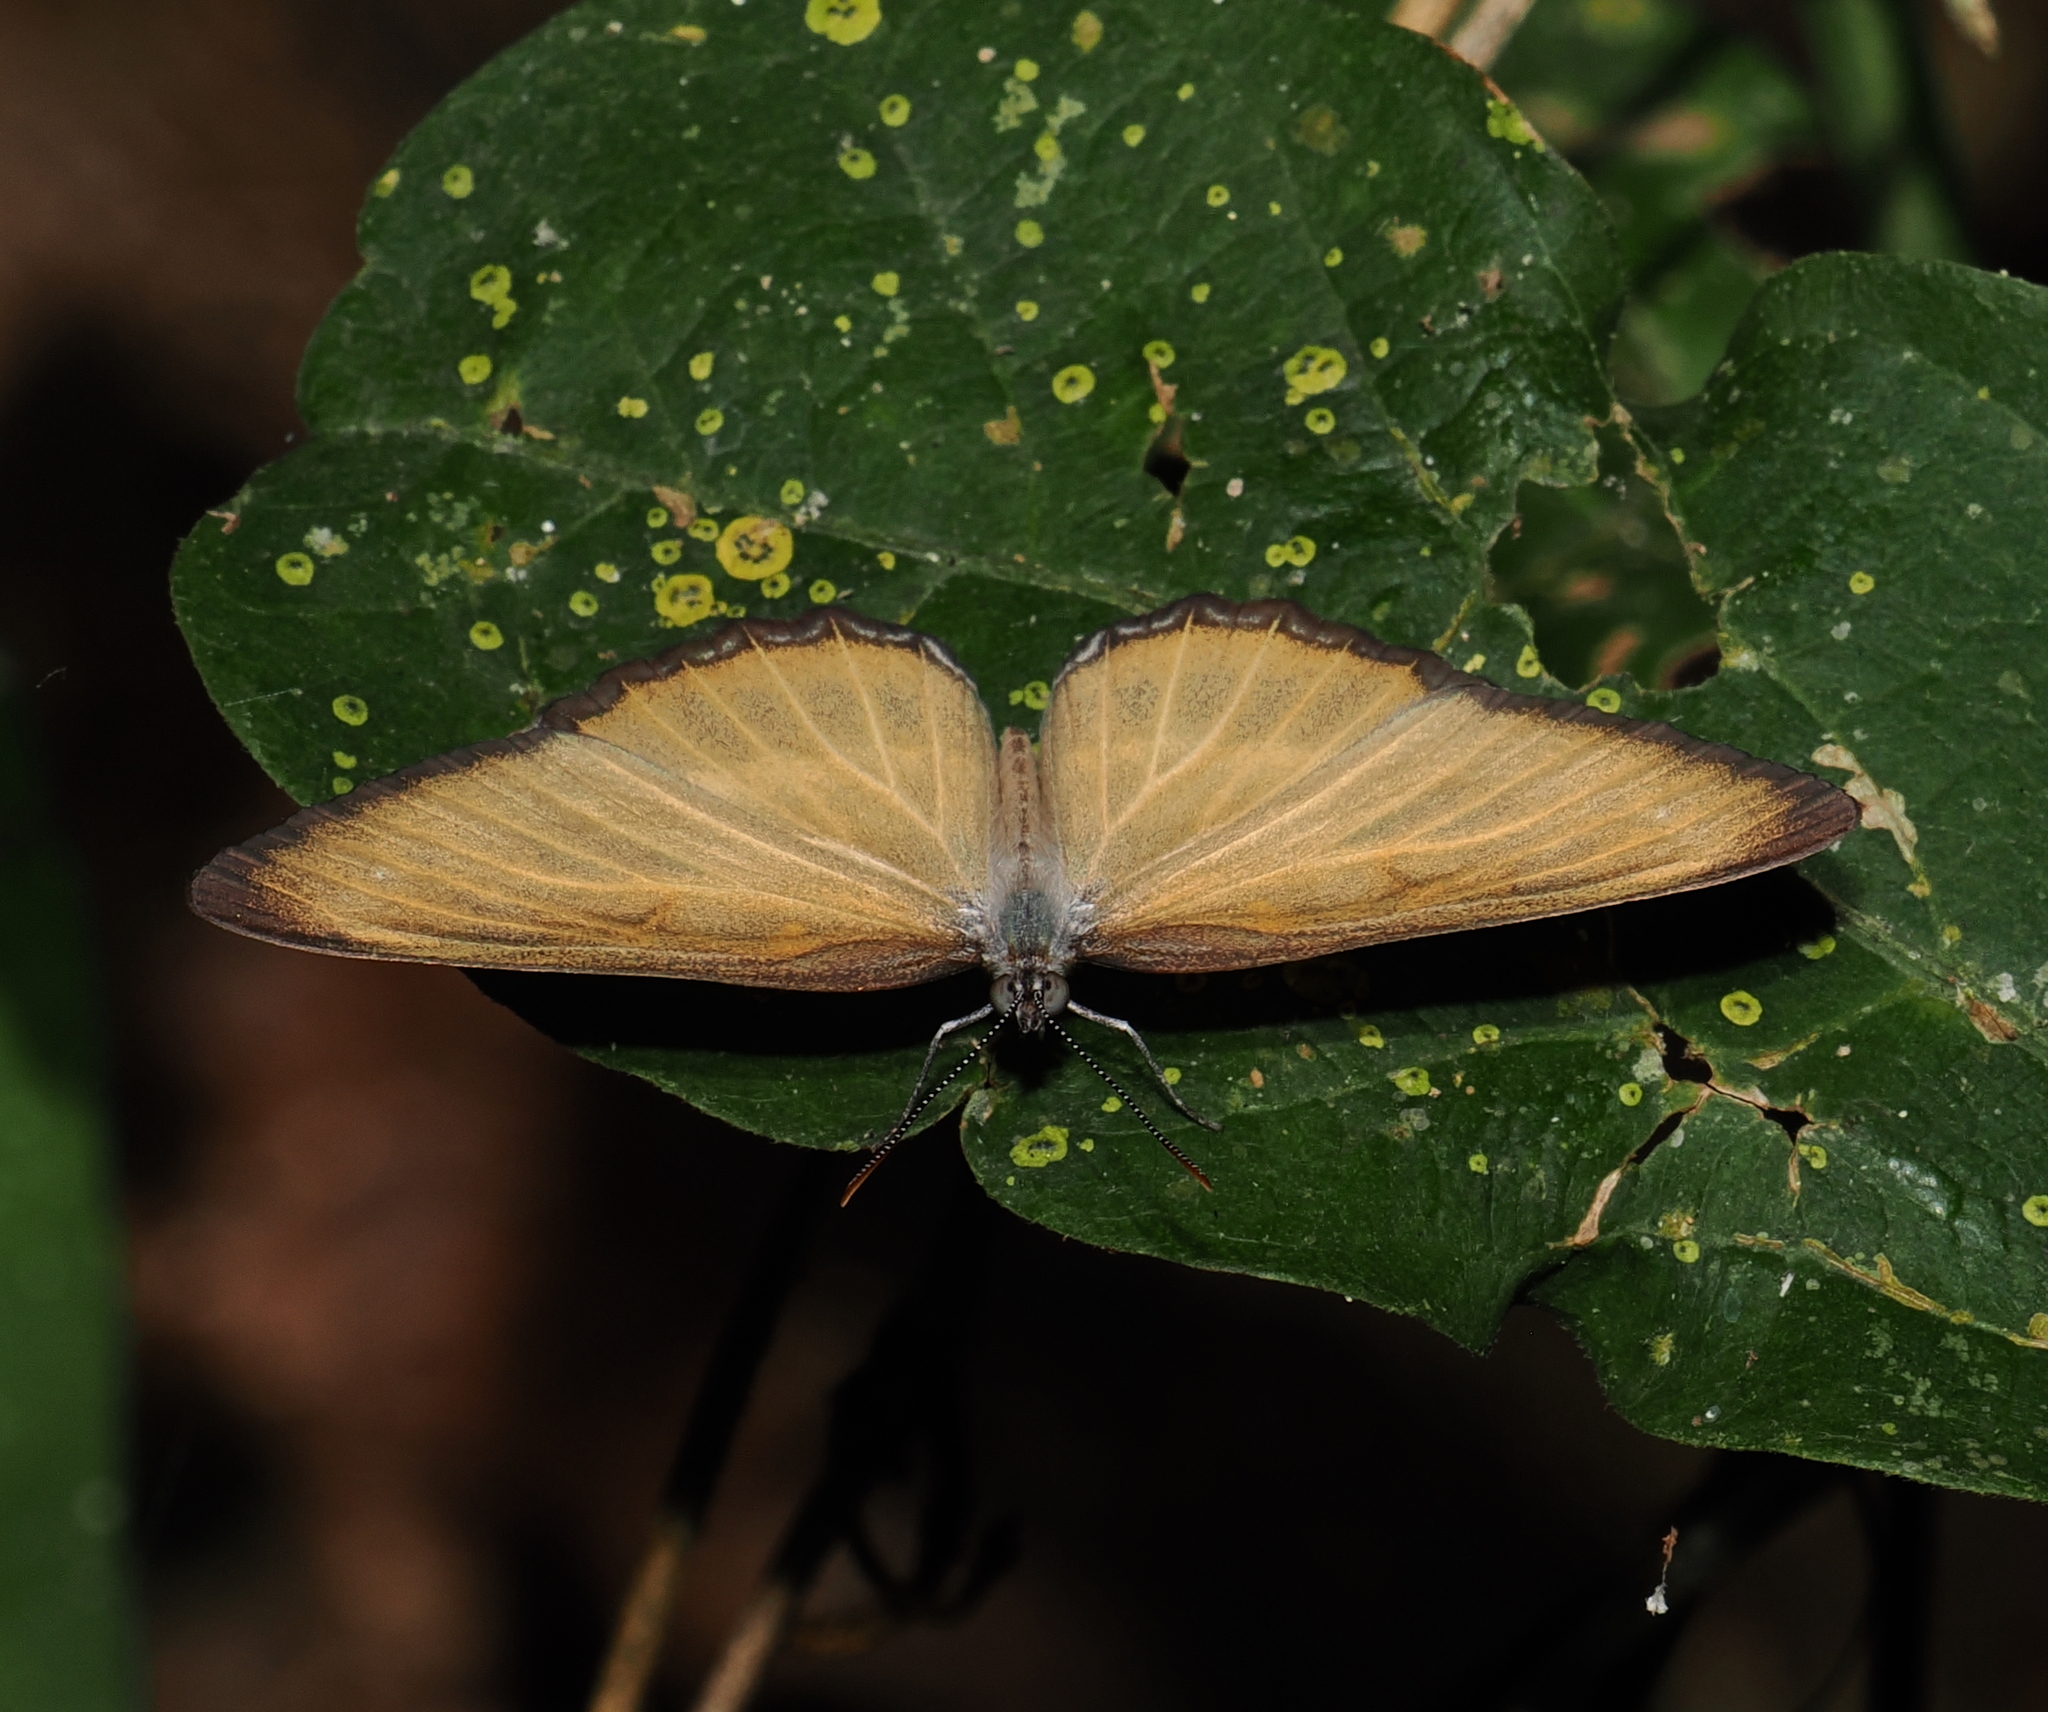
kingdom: Animalia
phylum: Arthropoda
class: Insecta
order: Lepidoptera
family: Nymphalidae
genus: Mestra
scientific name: Mestra hersilia
